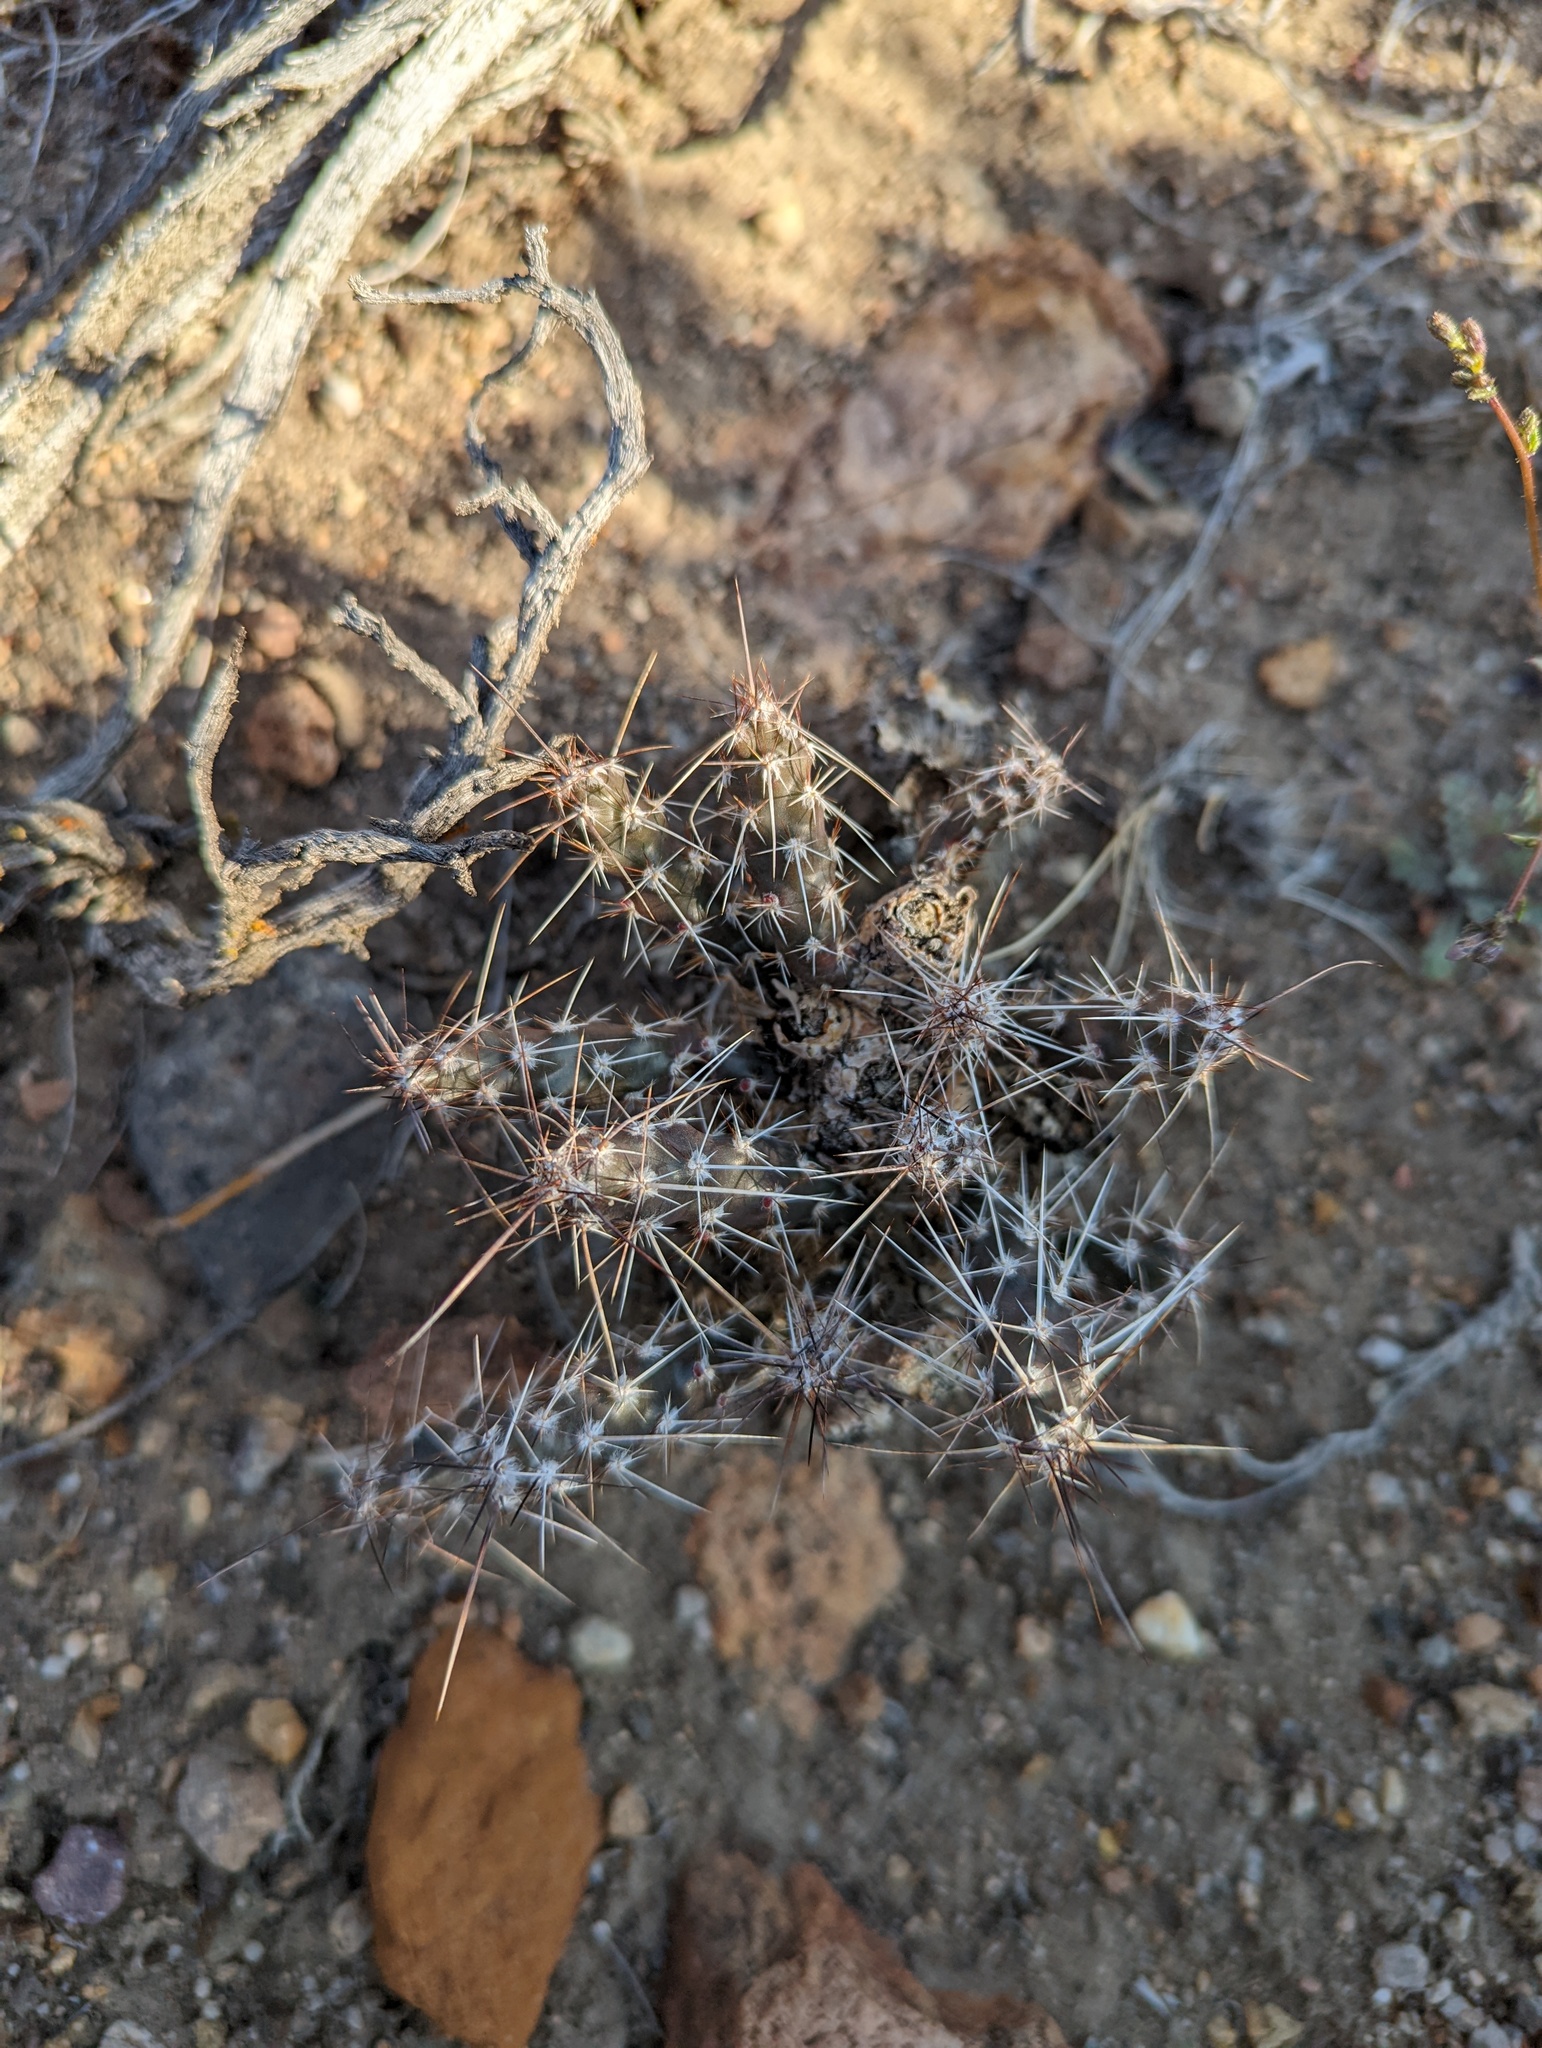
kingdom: Plantae
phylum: Tracheophyta
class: Magnoliopsida
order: Caryophyllales
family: Cactaceae
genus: Micropuntia
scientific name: Micropuntia pulchella
